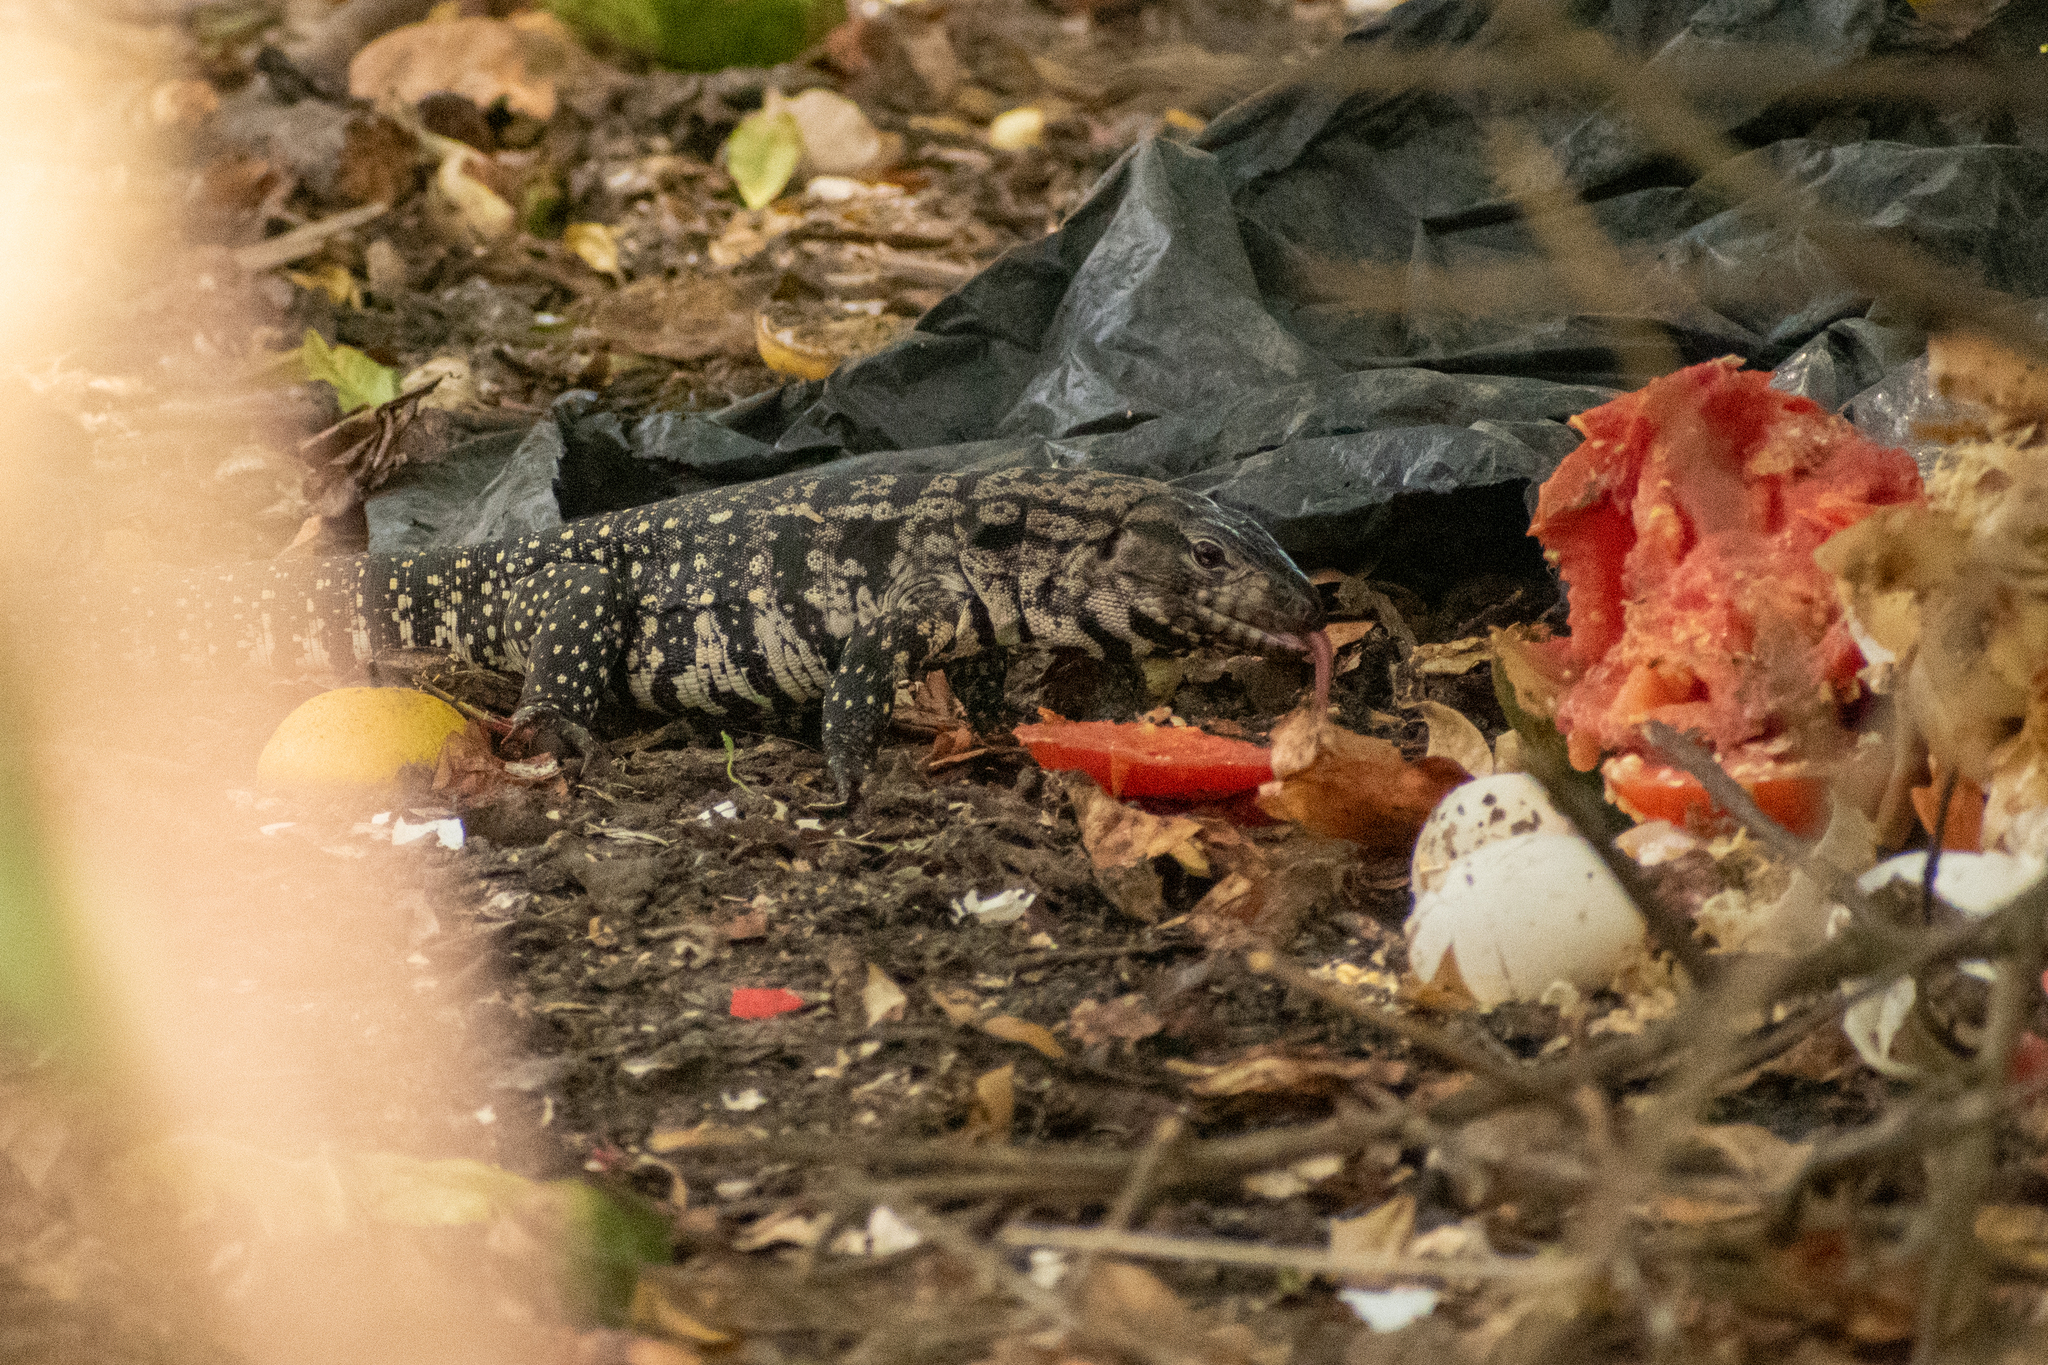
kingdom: Animalia
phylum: Chordata
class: Squamata
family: Teiidae
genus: Salvator
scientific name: Salvator merianae
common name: Argentine black and white tegu
